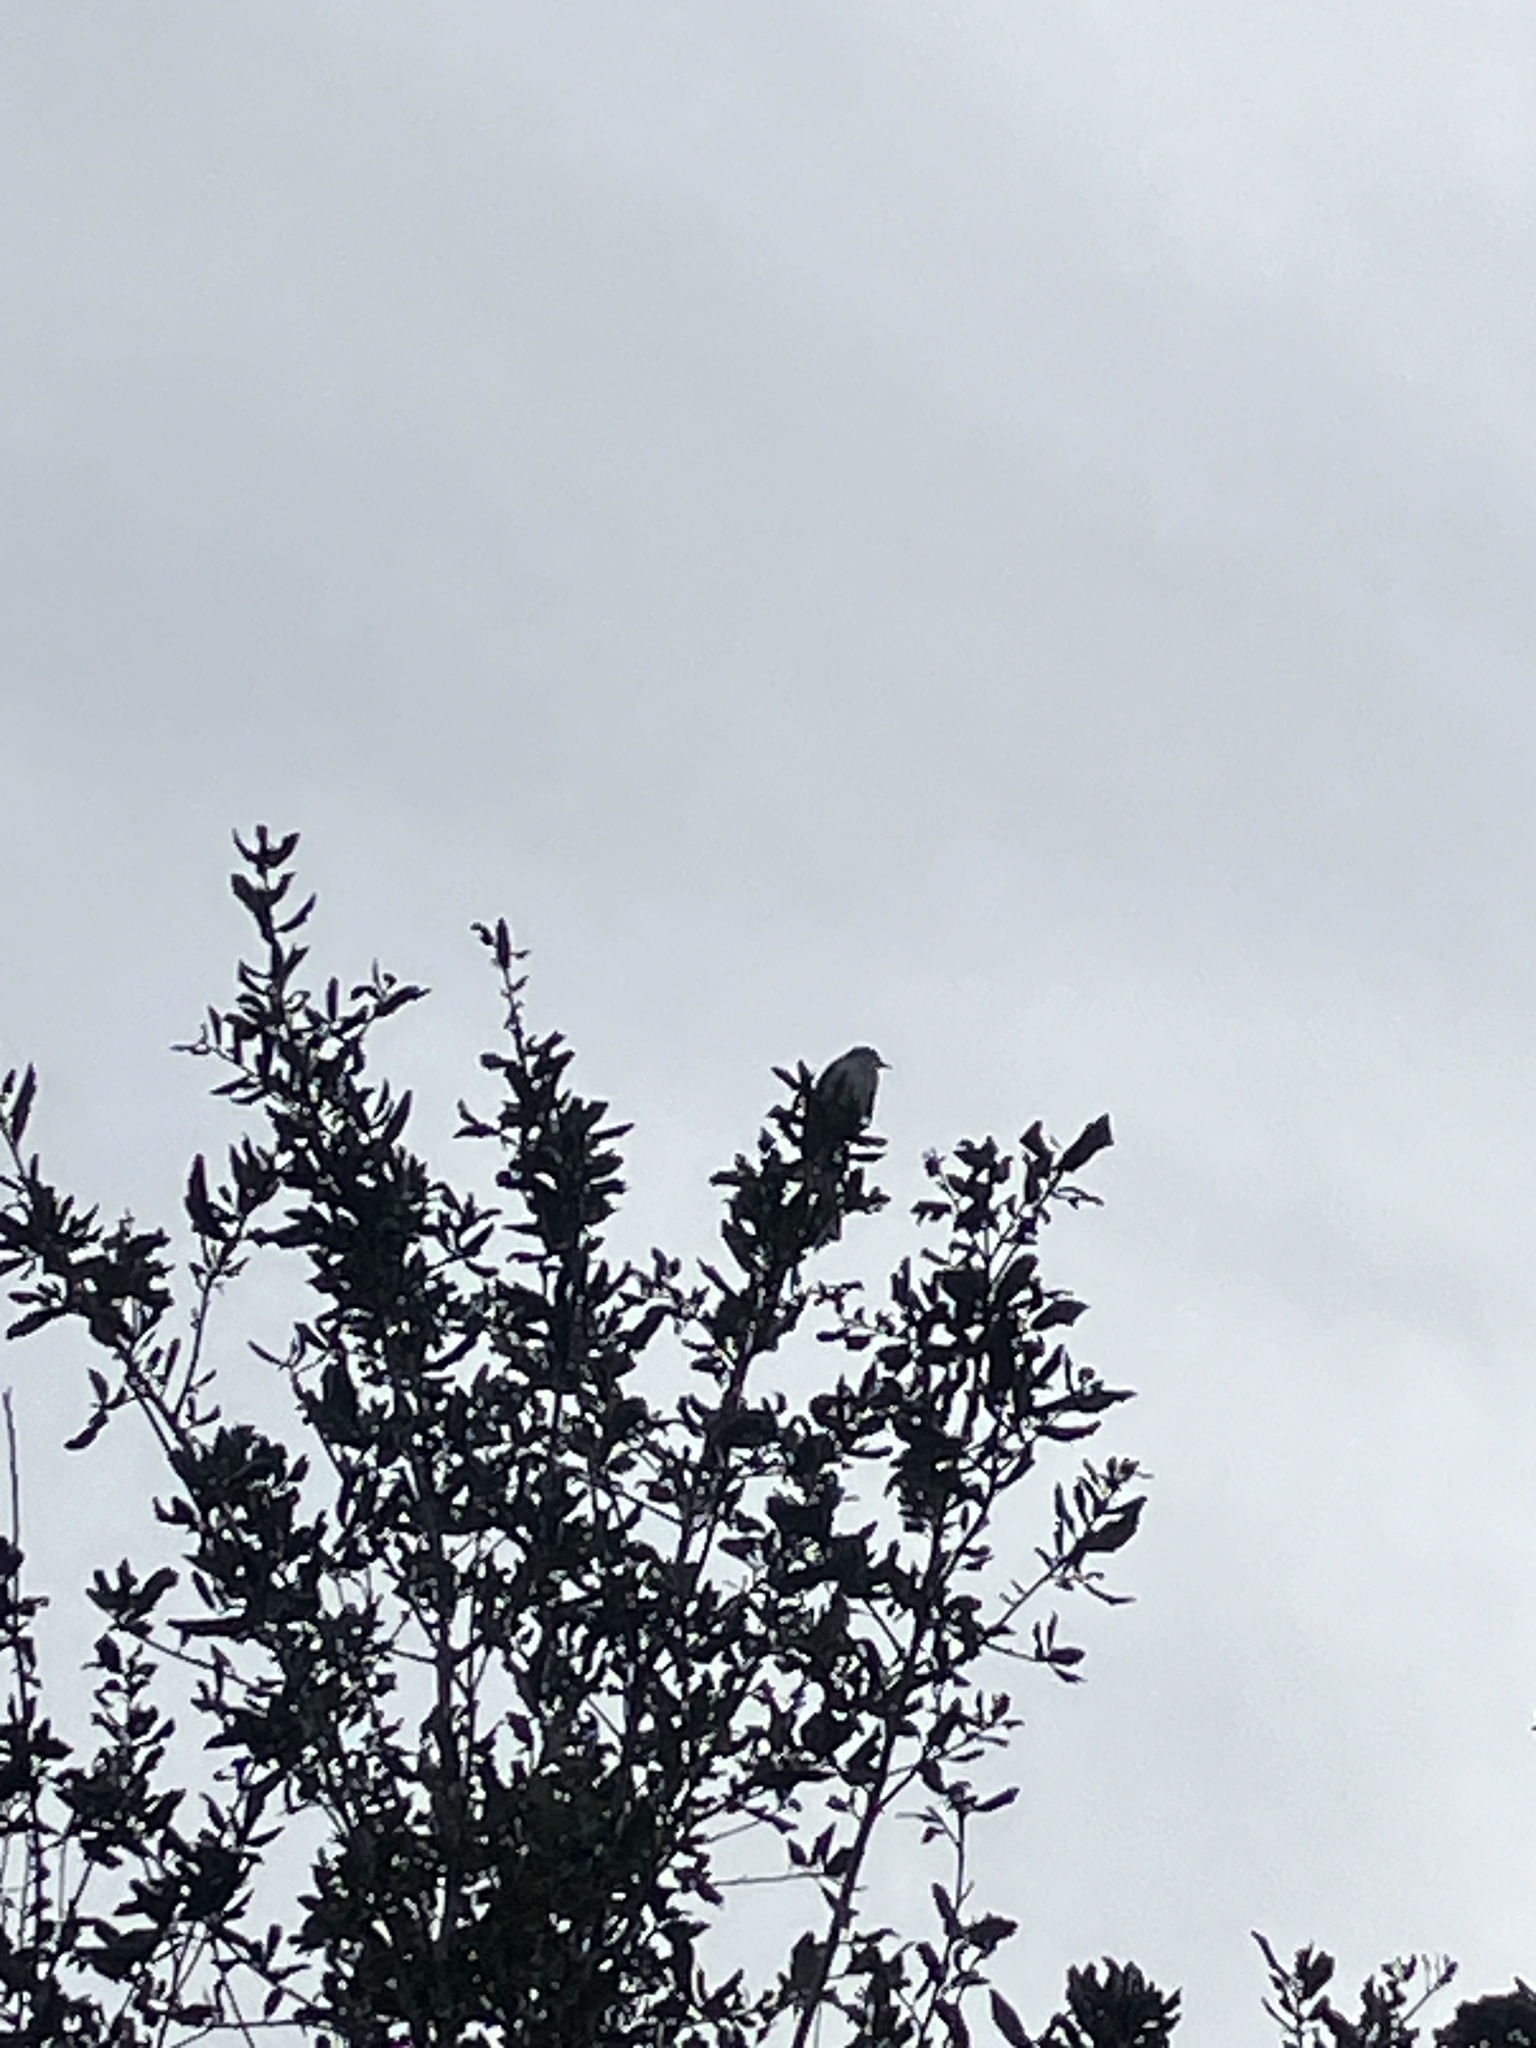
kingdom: Animalia
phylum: Chordata
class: Aves
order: Passeriformes
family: Mimidae
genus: Mimus
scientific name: Mimus polyglottos
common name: Northern mockingbird
